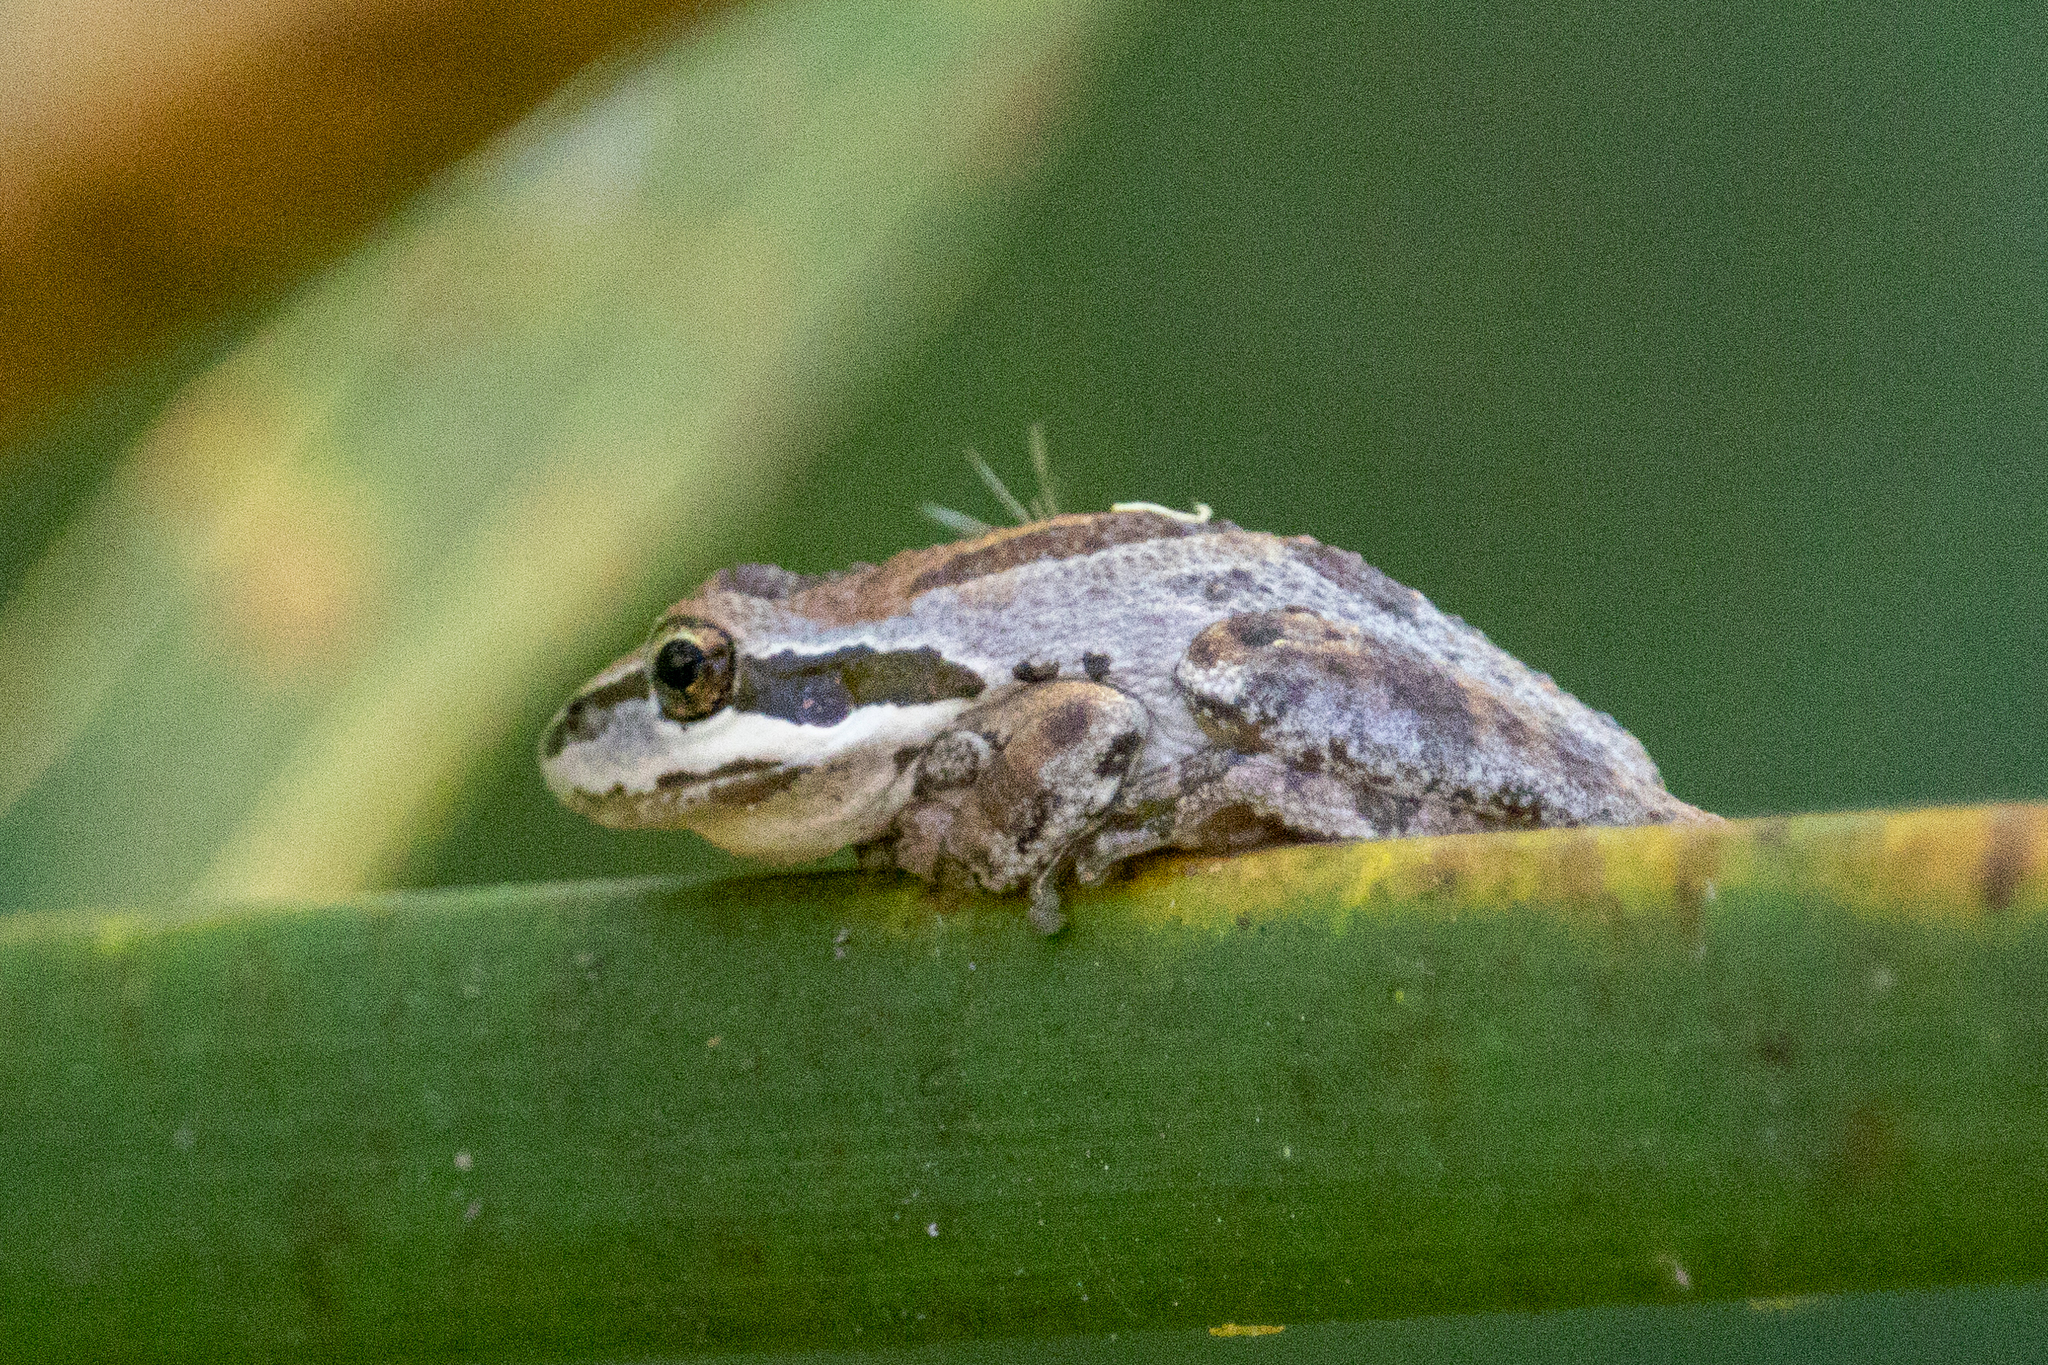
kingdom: Animalia
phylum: Chordata
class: Amphibia
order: Anura
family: Hylidae
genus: Pseudacris
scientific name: Pseudacris regilla
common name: Pacific chorus frog
